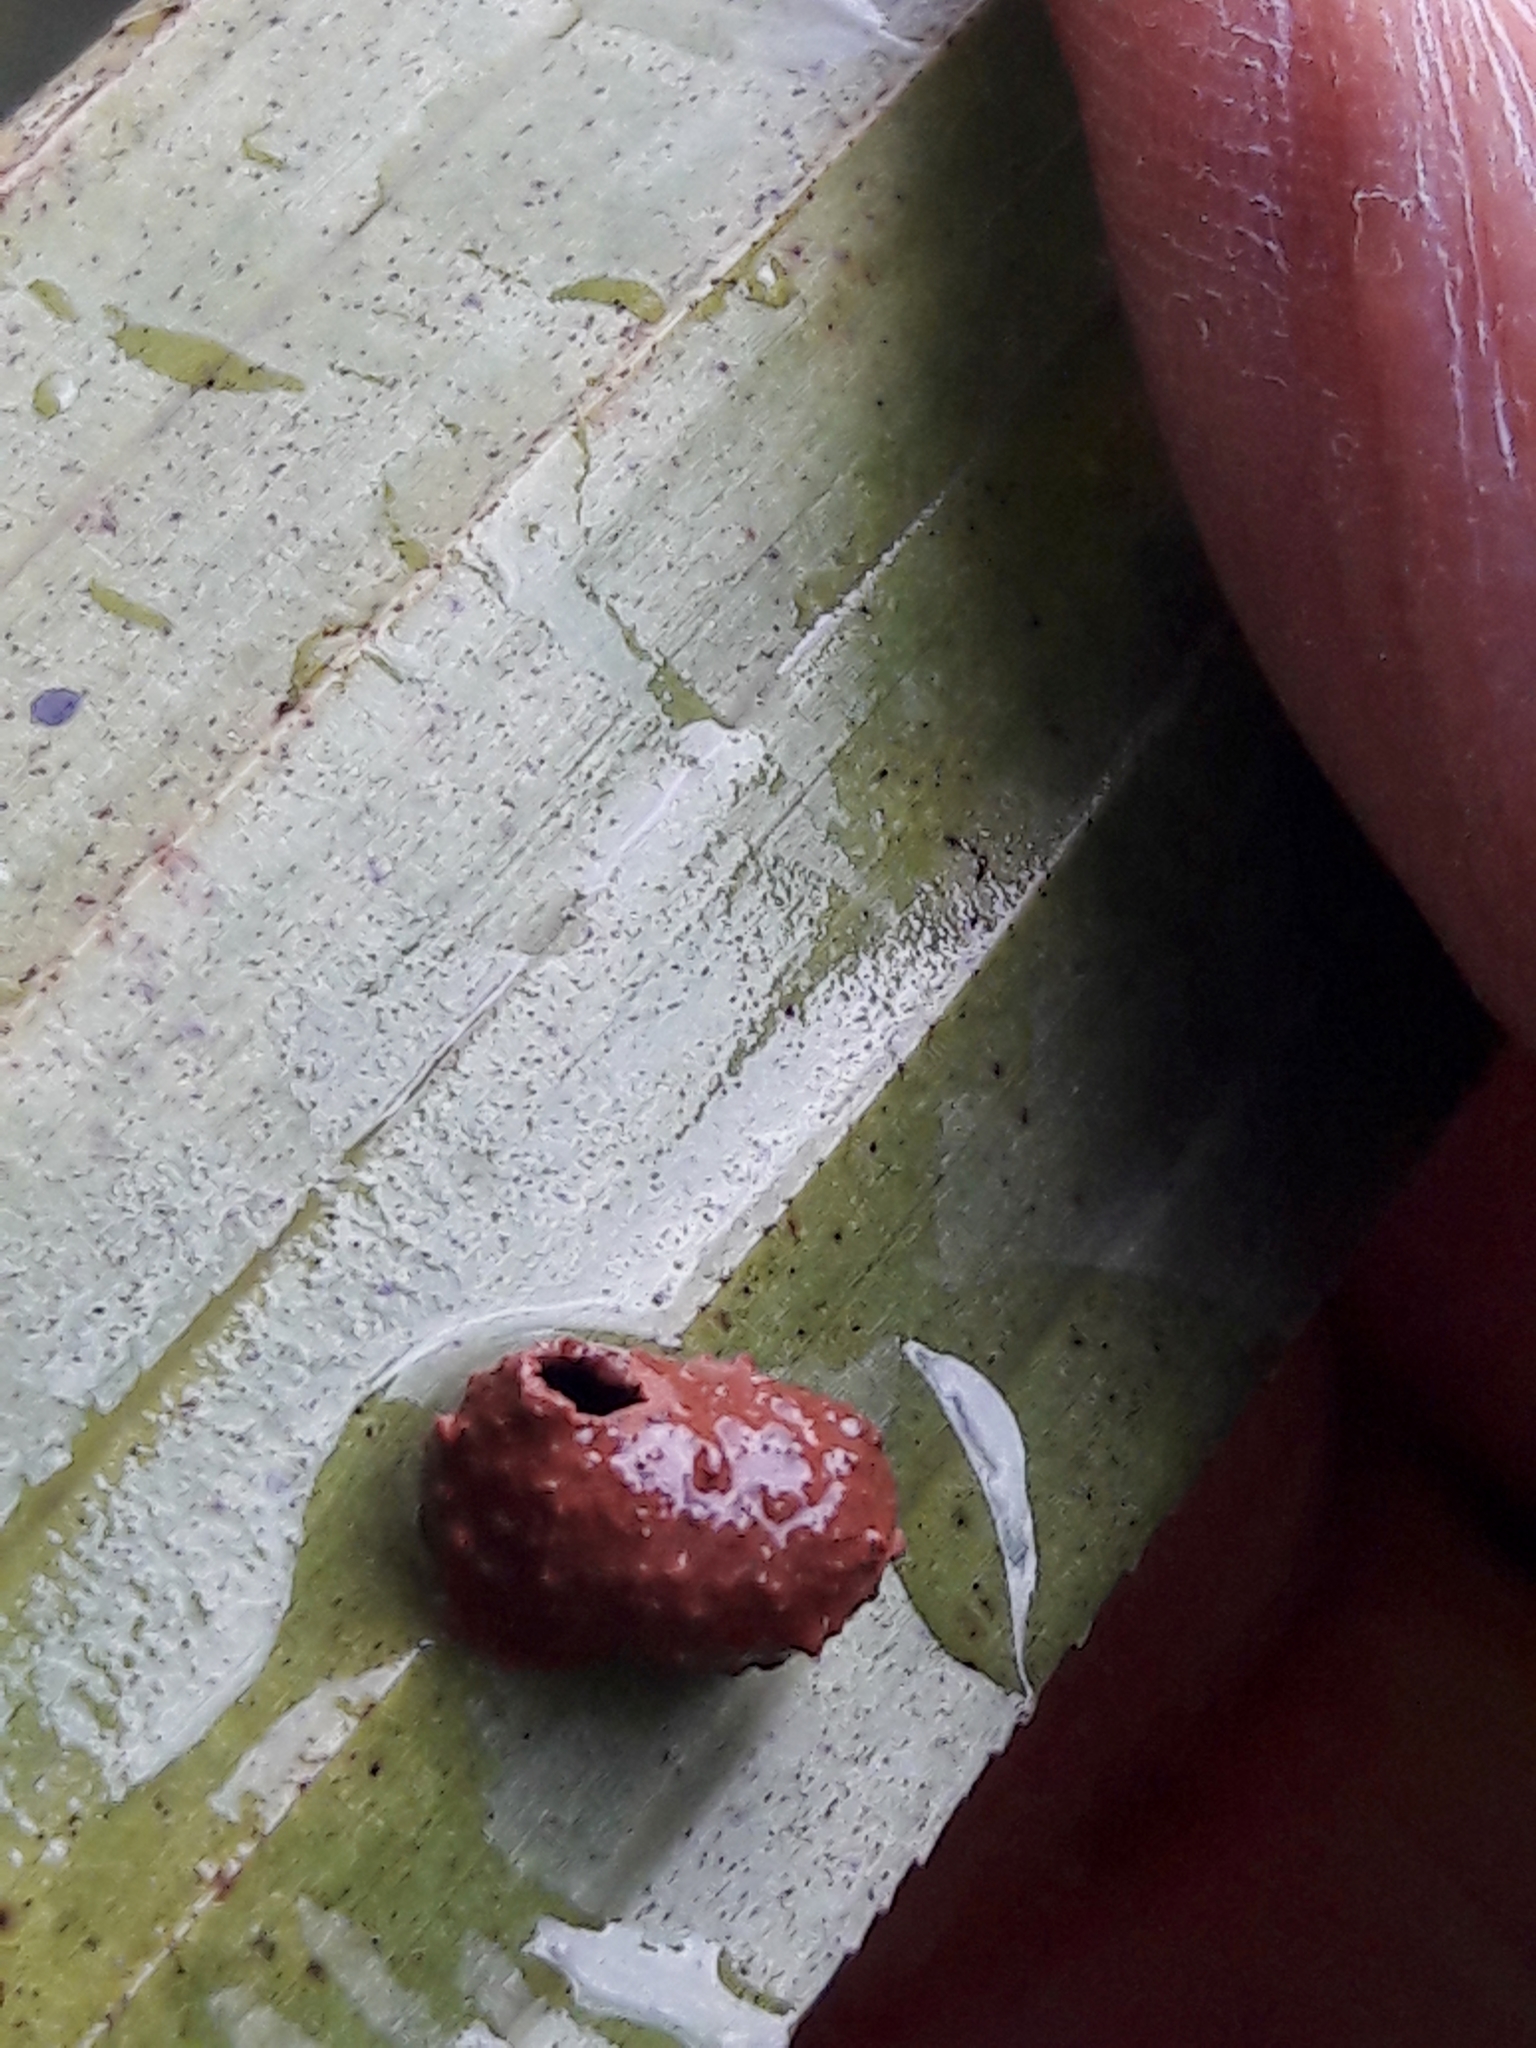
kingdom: Animalia
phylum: Arthropoda
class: Insecta
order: Hymenoptera
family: Eumenidae
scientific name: Eumenidae
